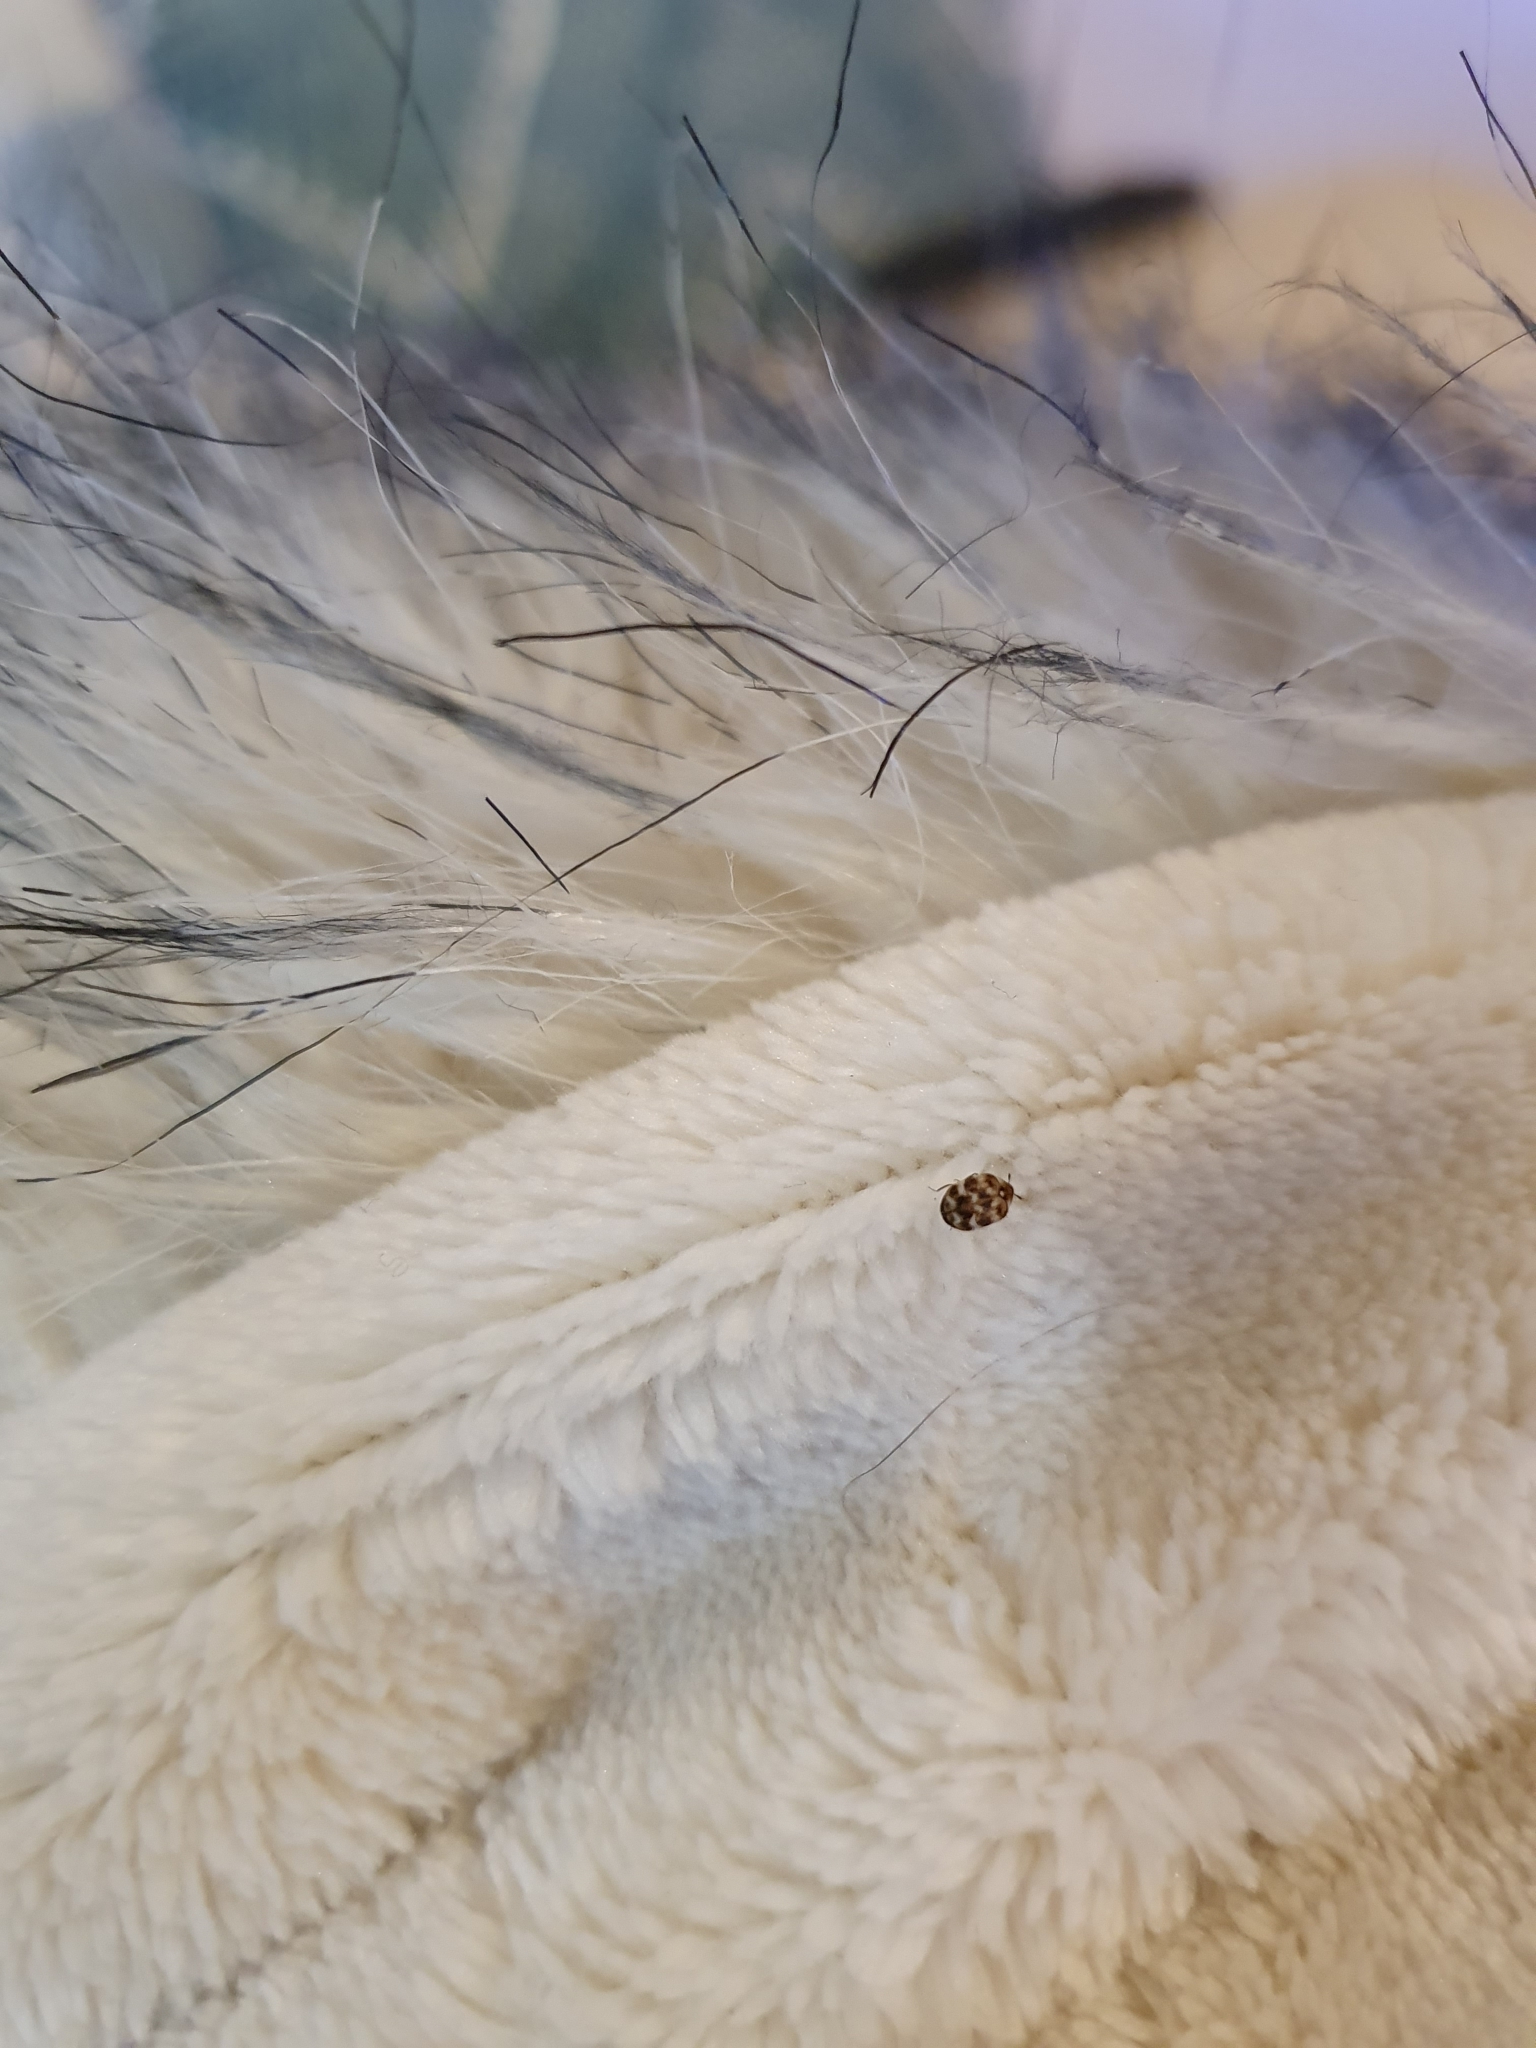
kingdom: Animalia
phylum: Arthropoda
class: Insecta
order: Coleoptera
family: Dermestidae
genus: Anthrenus
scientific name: Anthrenus verbasci
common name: Varied carpet beetle
